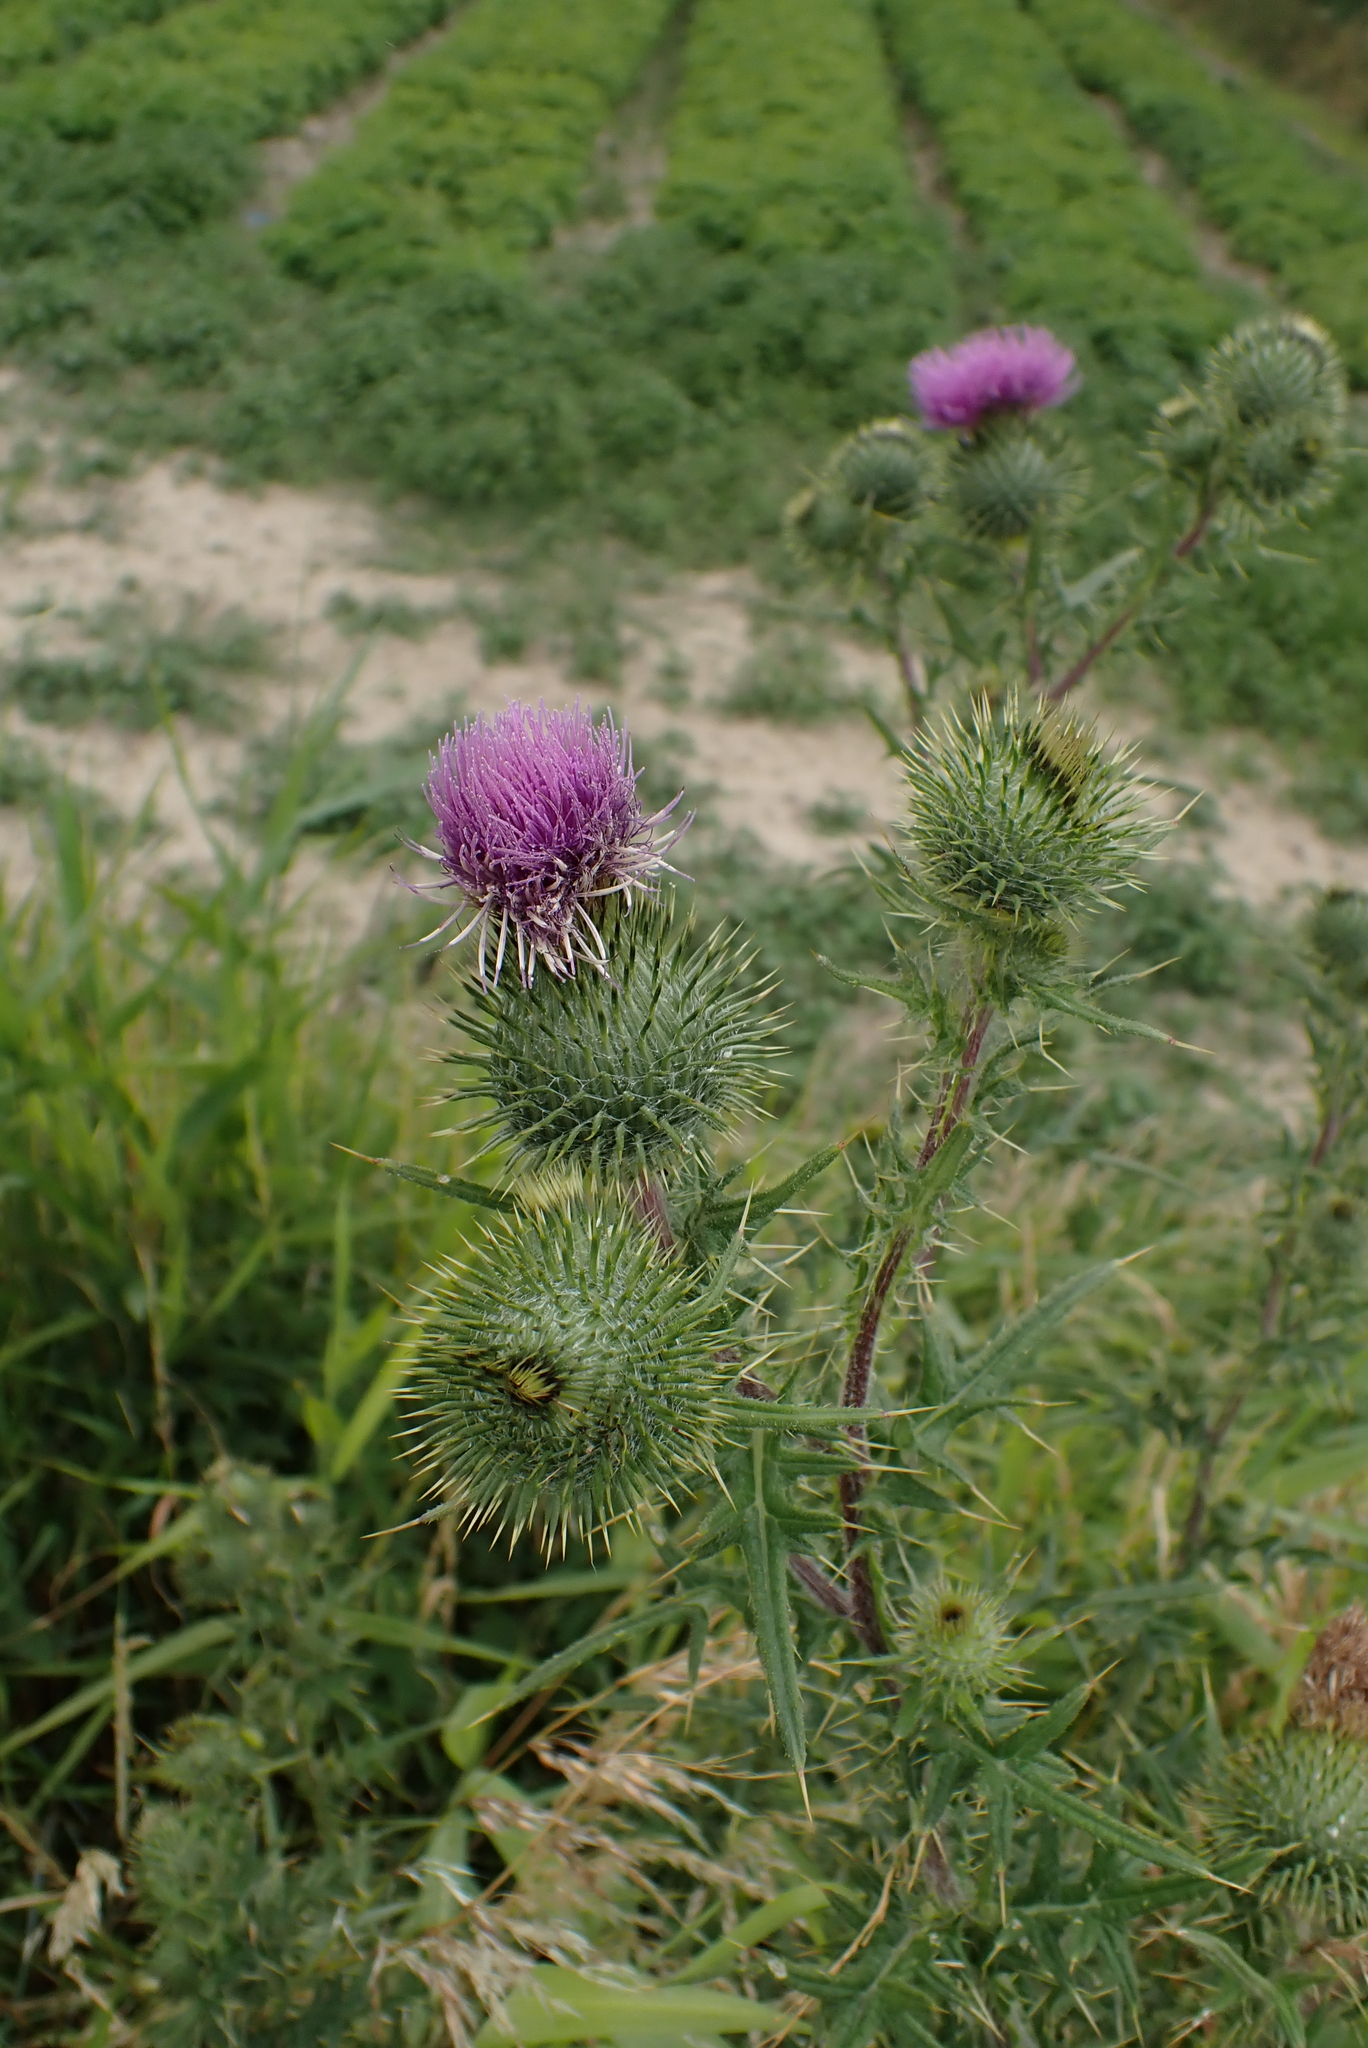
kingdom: Plantae
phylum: Tracheophyta
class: Magnoliopsida
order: Asterales
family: Asteraceae
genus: Cirsium
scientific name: Cirsium vulgare
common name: Bull thistle
